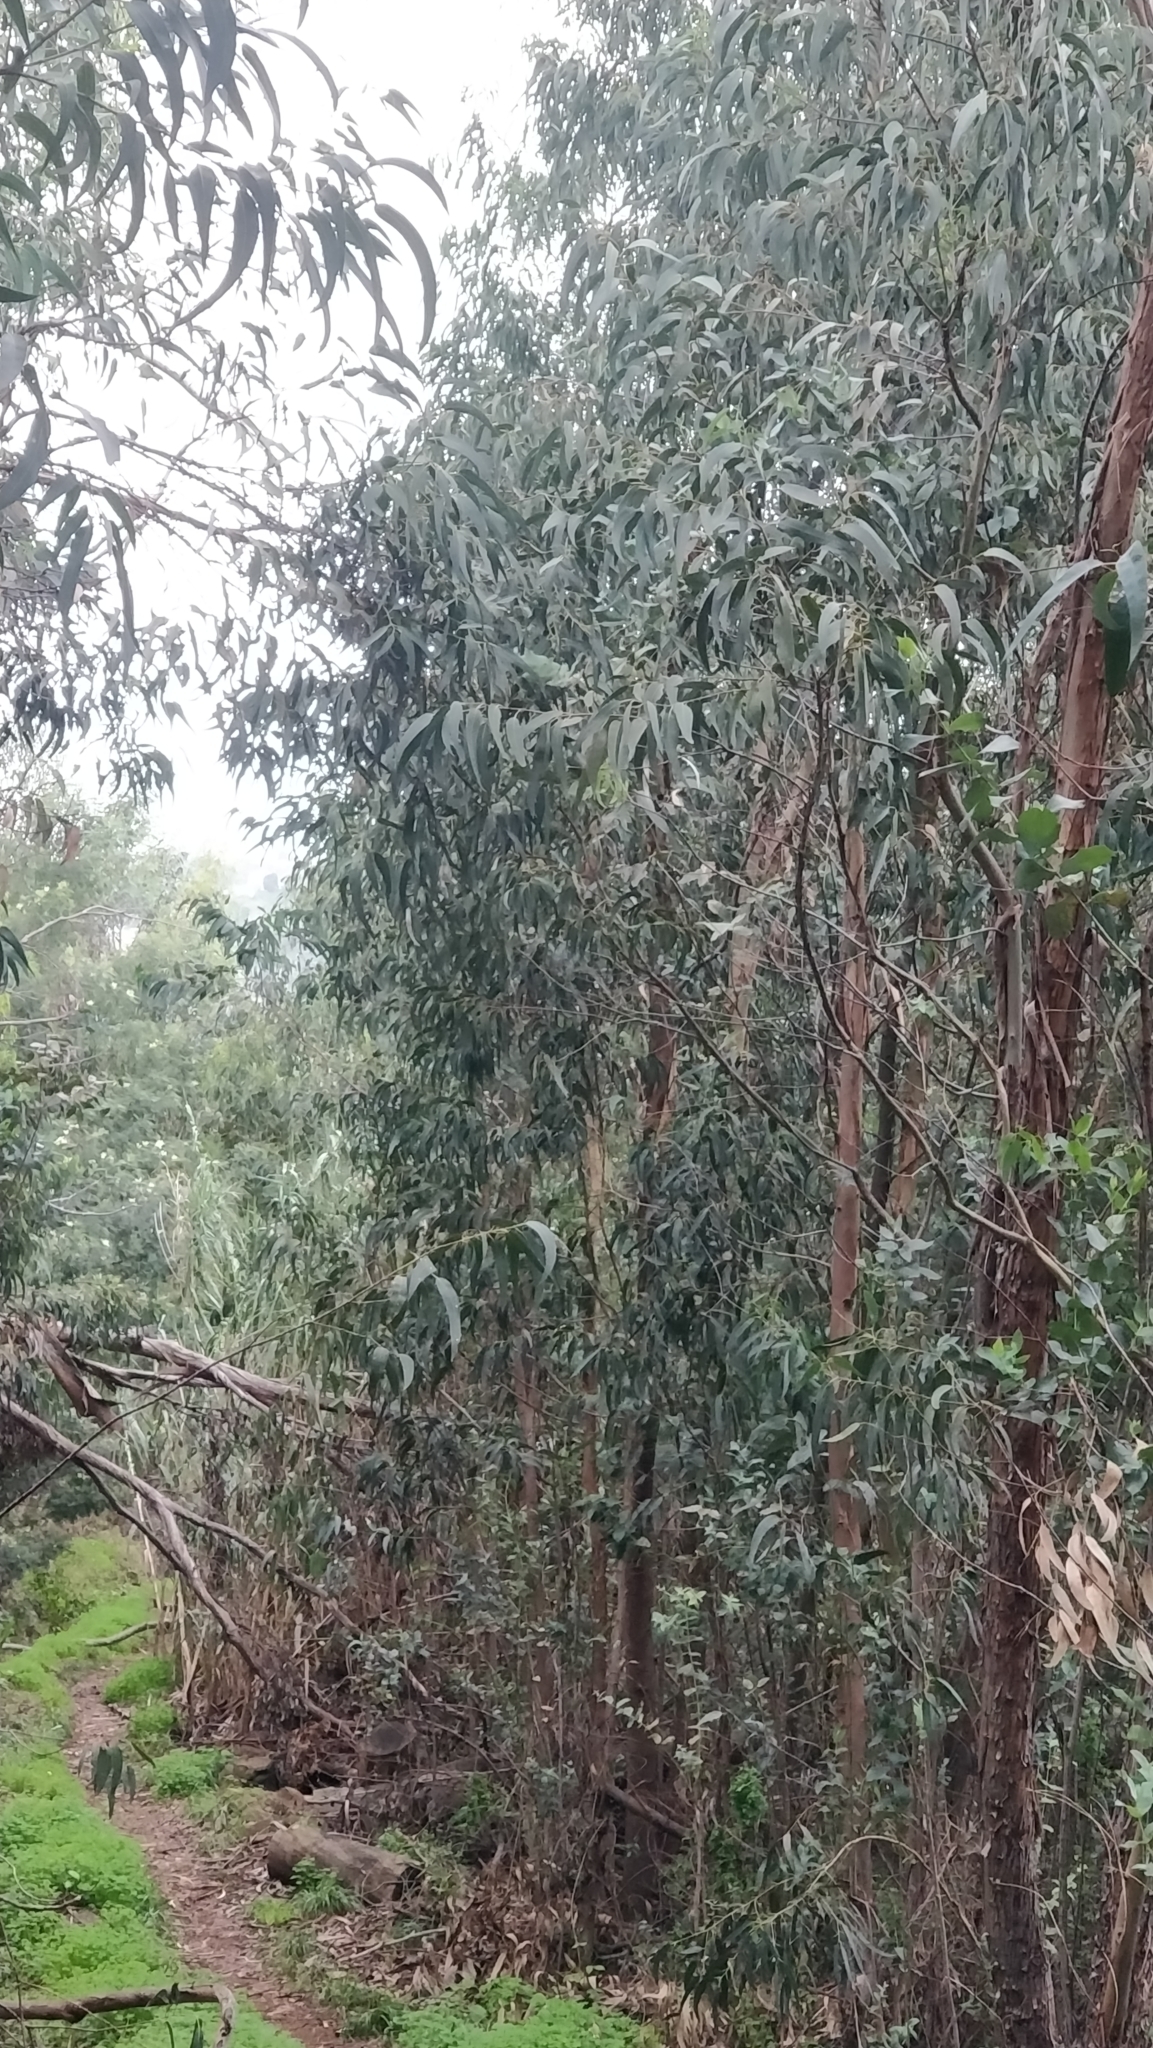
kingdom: Plantae
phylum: Tracheophyta
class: Magnoliopsida
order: Myrtales
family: Myrtaceae
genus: Eucalyptus
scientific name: Eucalyptus globulus
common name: Southern blue-gum
